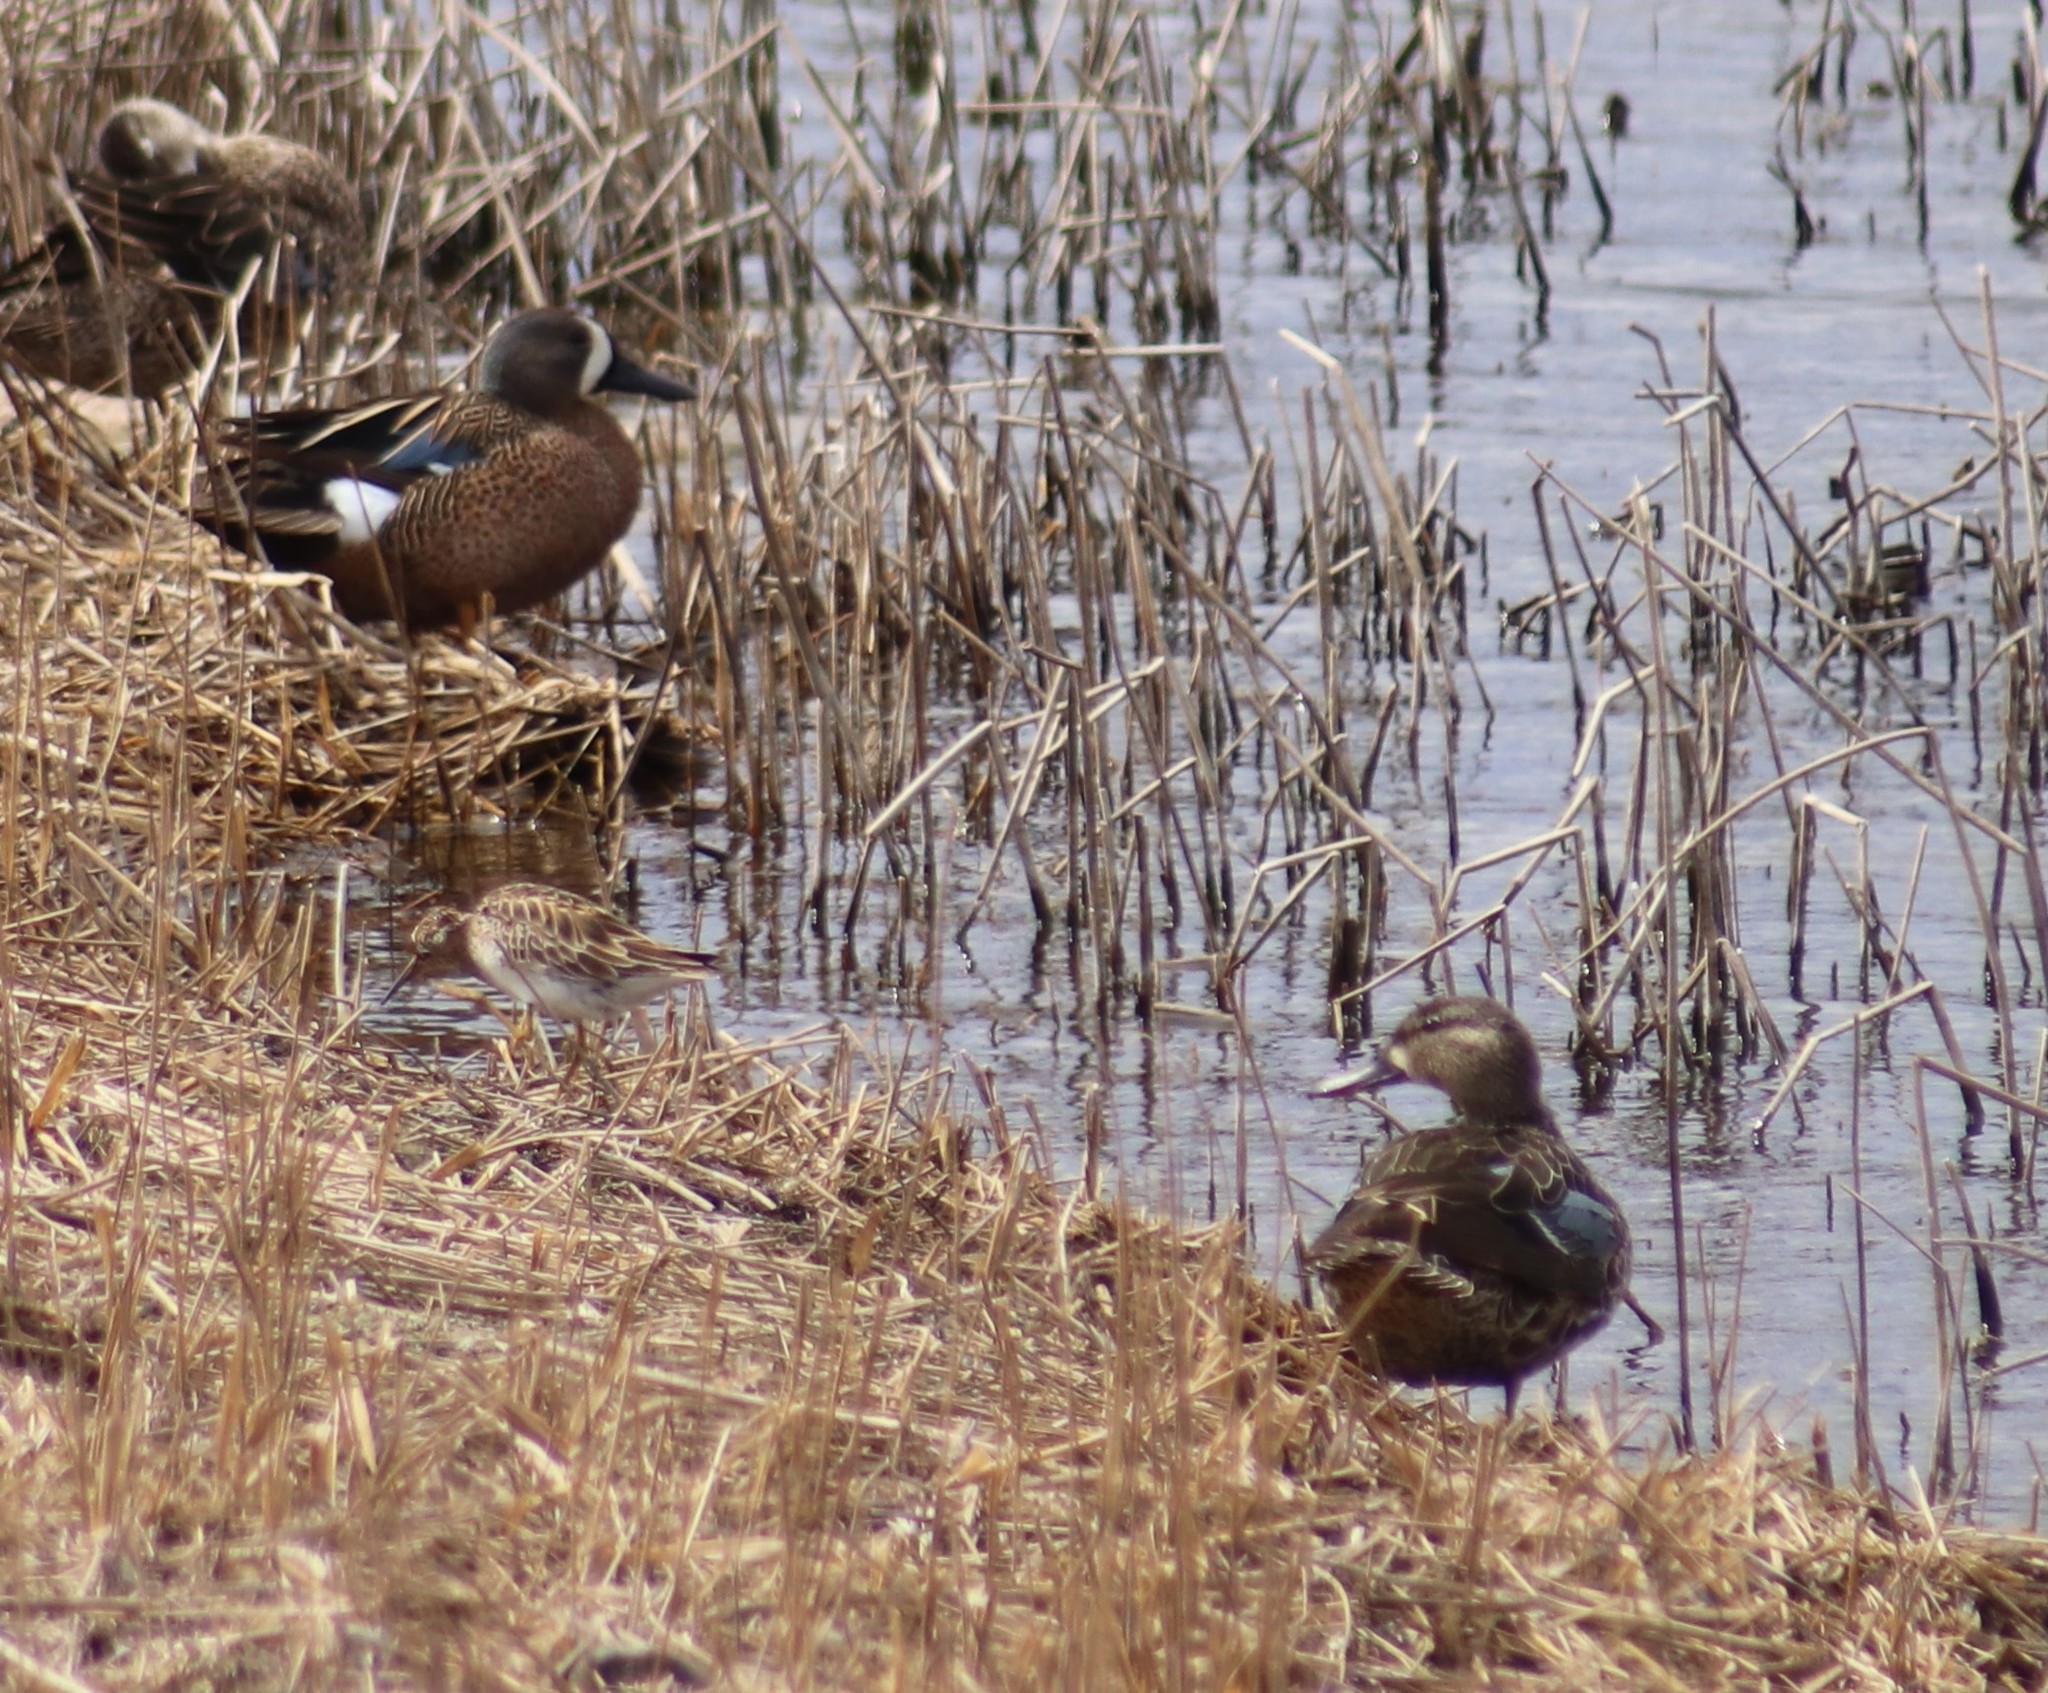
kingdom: Animalia
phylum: Chordata
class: Aves
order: Anseriformes
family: Anatidae
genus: Spatula
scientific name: Spatula discors
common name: Blue-winged teal
